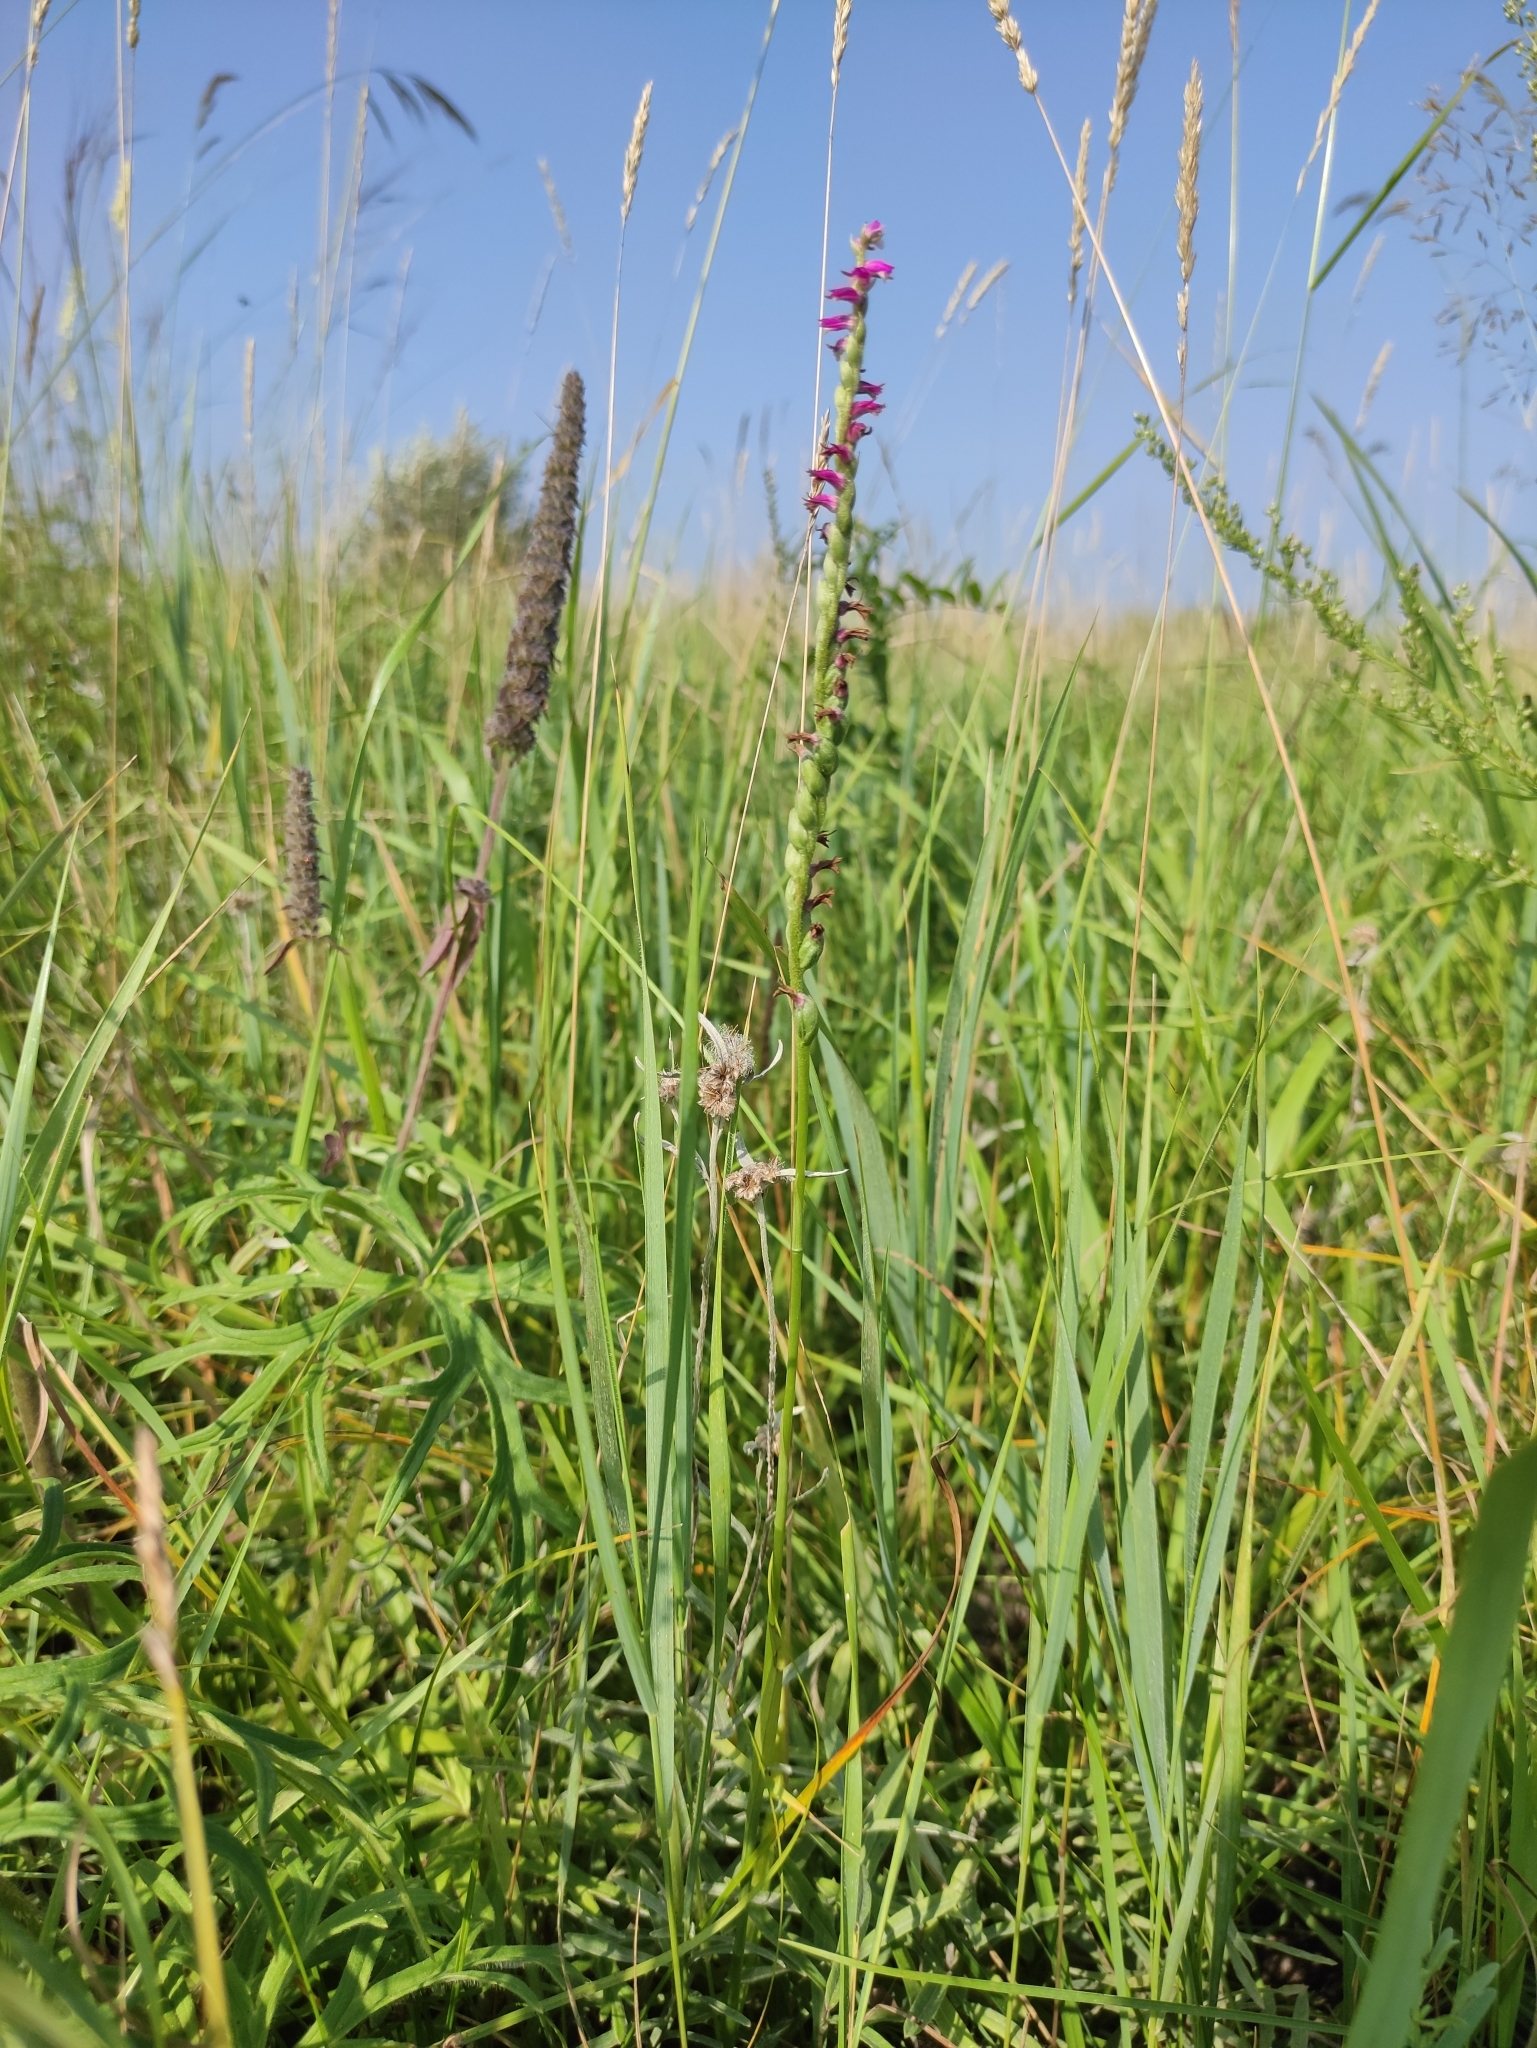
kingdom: Plantae
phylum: Tracheophyta
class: Liliopsida
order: Asparagales
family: Orchidaceae
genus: Spiranthes
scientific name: Spiranthes australis
